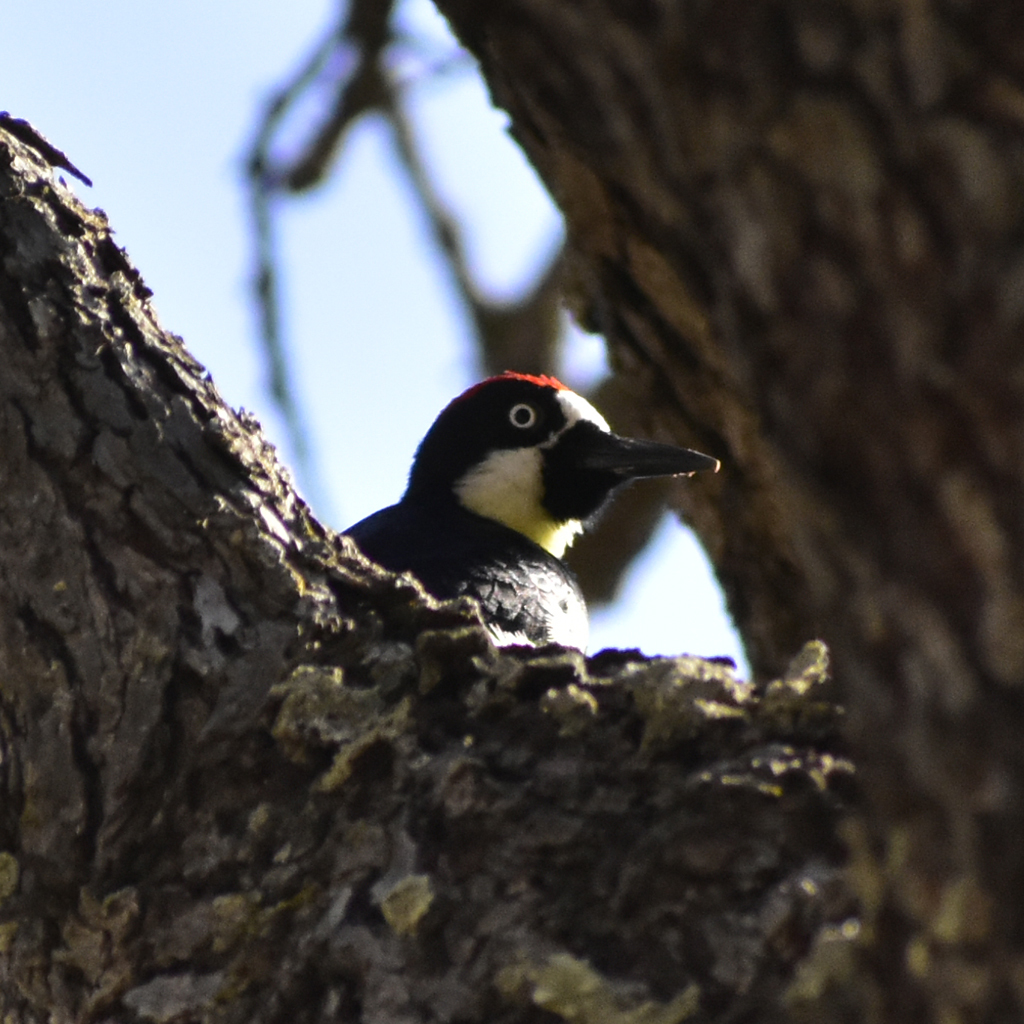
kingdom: Animalia
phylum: Chordata
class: Aves
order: Piciformes
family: Picidae
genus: Melanerpes
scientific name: Melanerpes formicivorus
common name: Acorn woodpecker
